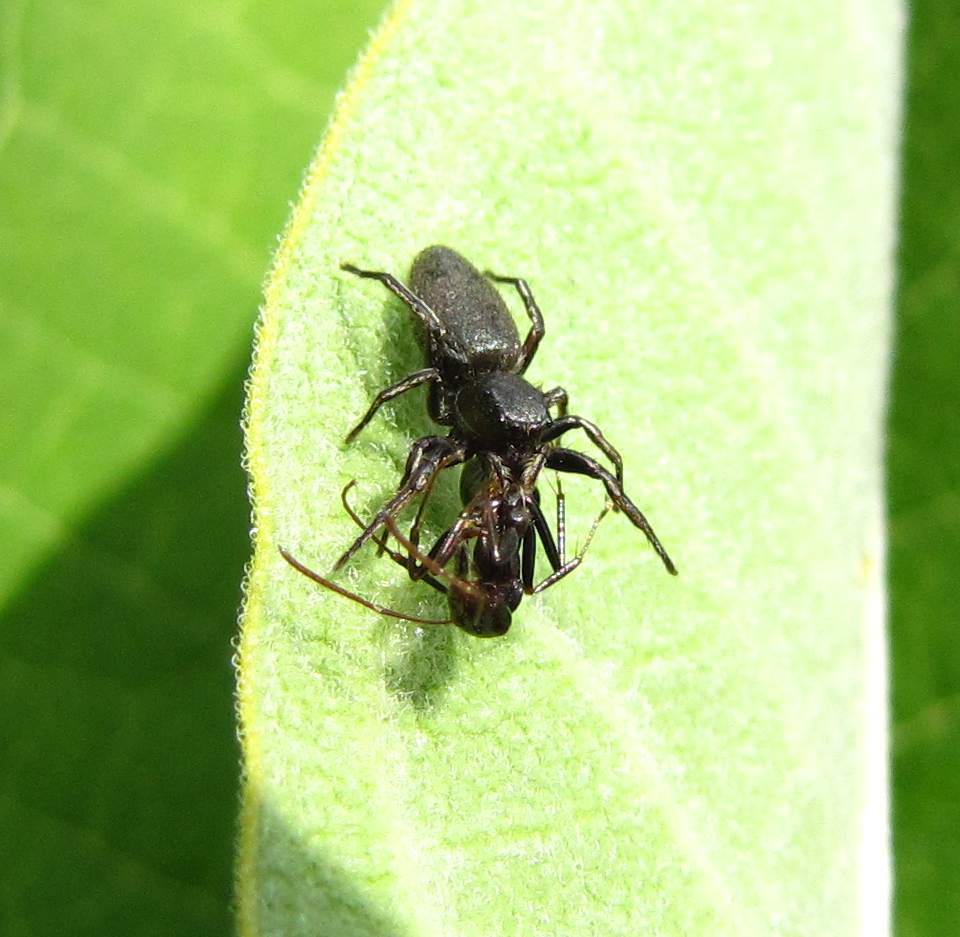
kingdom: Animalia
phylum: Arthropoda
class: Arachnida
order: Araneae
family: Salticidae
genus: Tutelina
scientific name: Tutelina similis
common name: Thick-spined jumping spider
